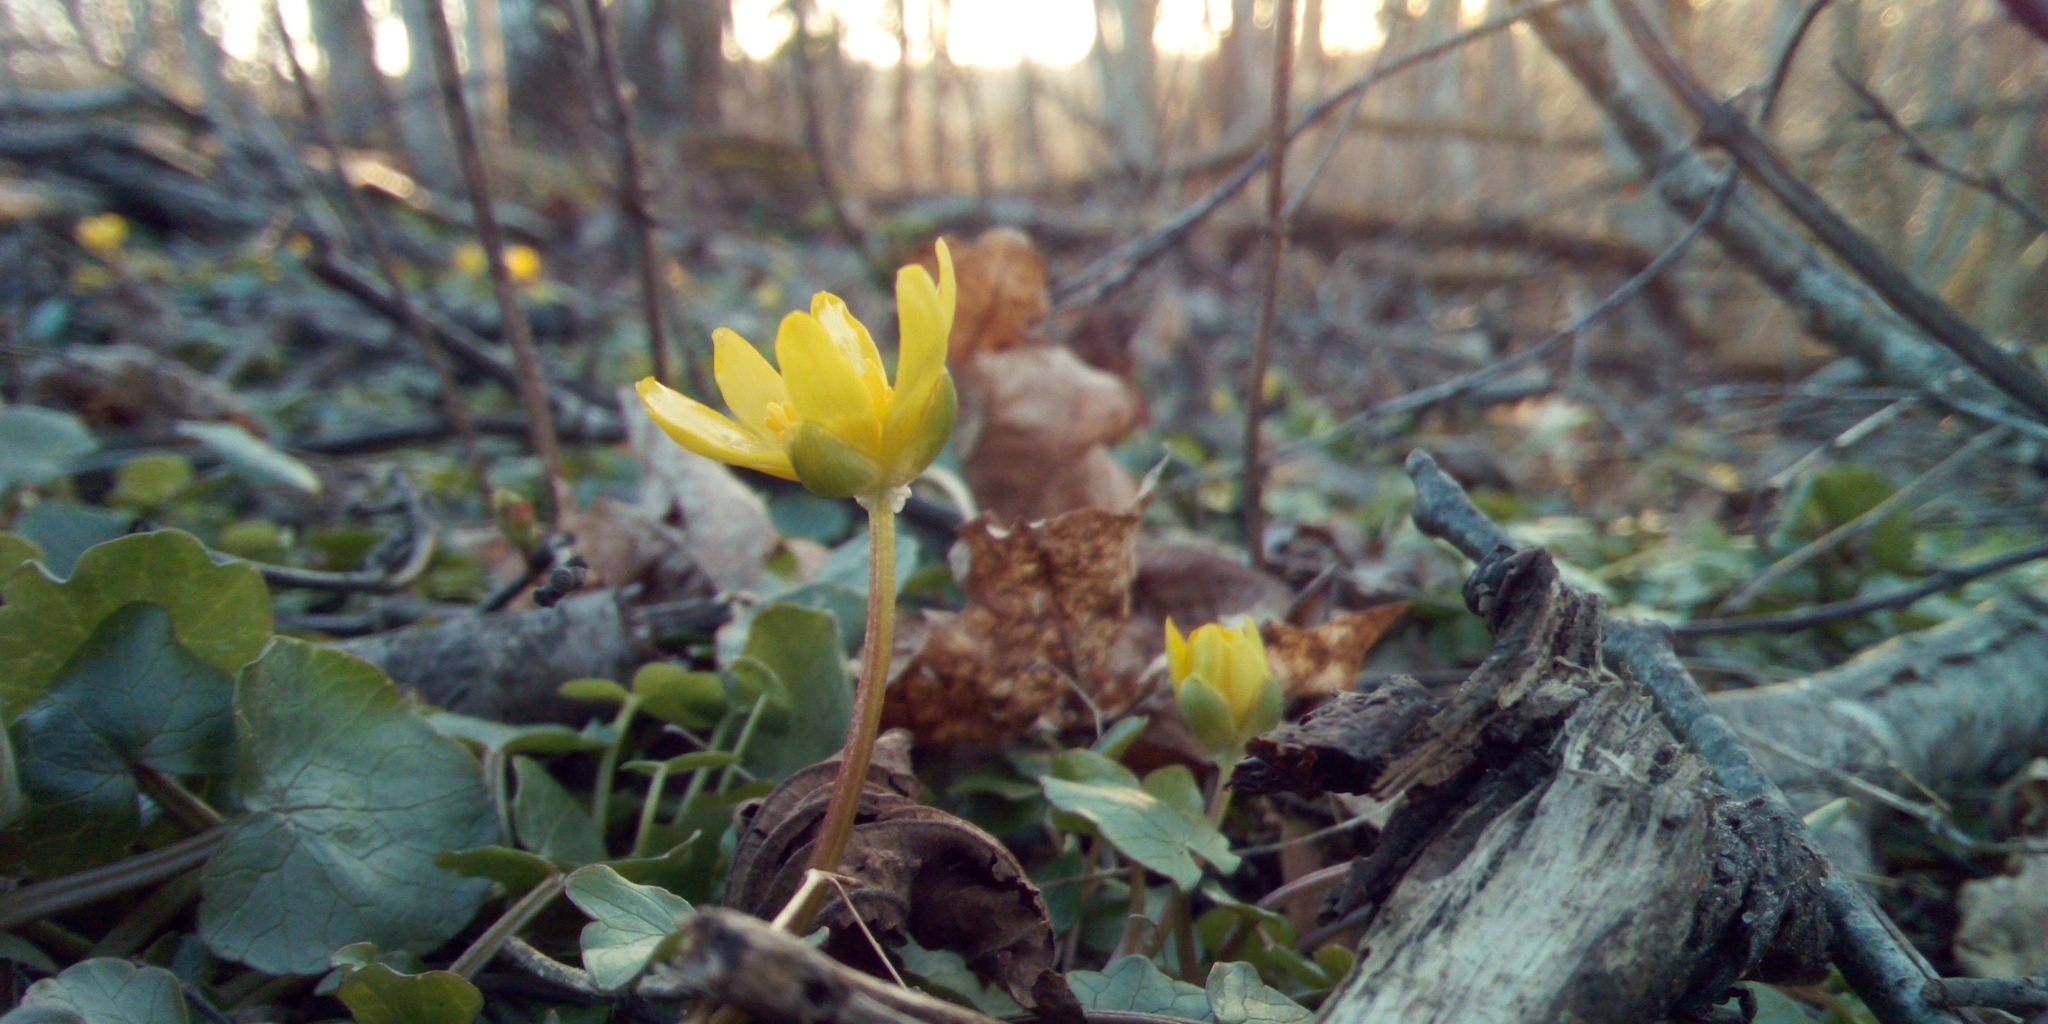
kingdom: Plantae
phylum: Tracheophyta
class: Magnoliopsida
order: Ranunculales
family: Ranunculaceae
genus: Ficaria
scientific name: Ficaria verna
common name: Lesser celandine
